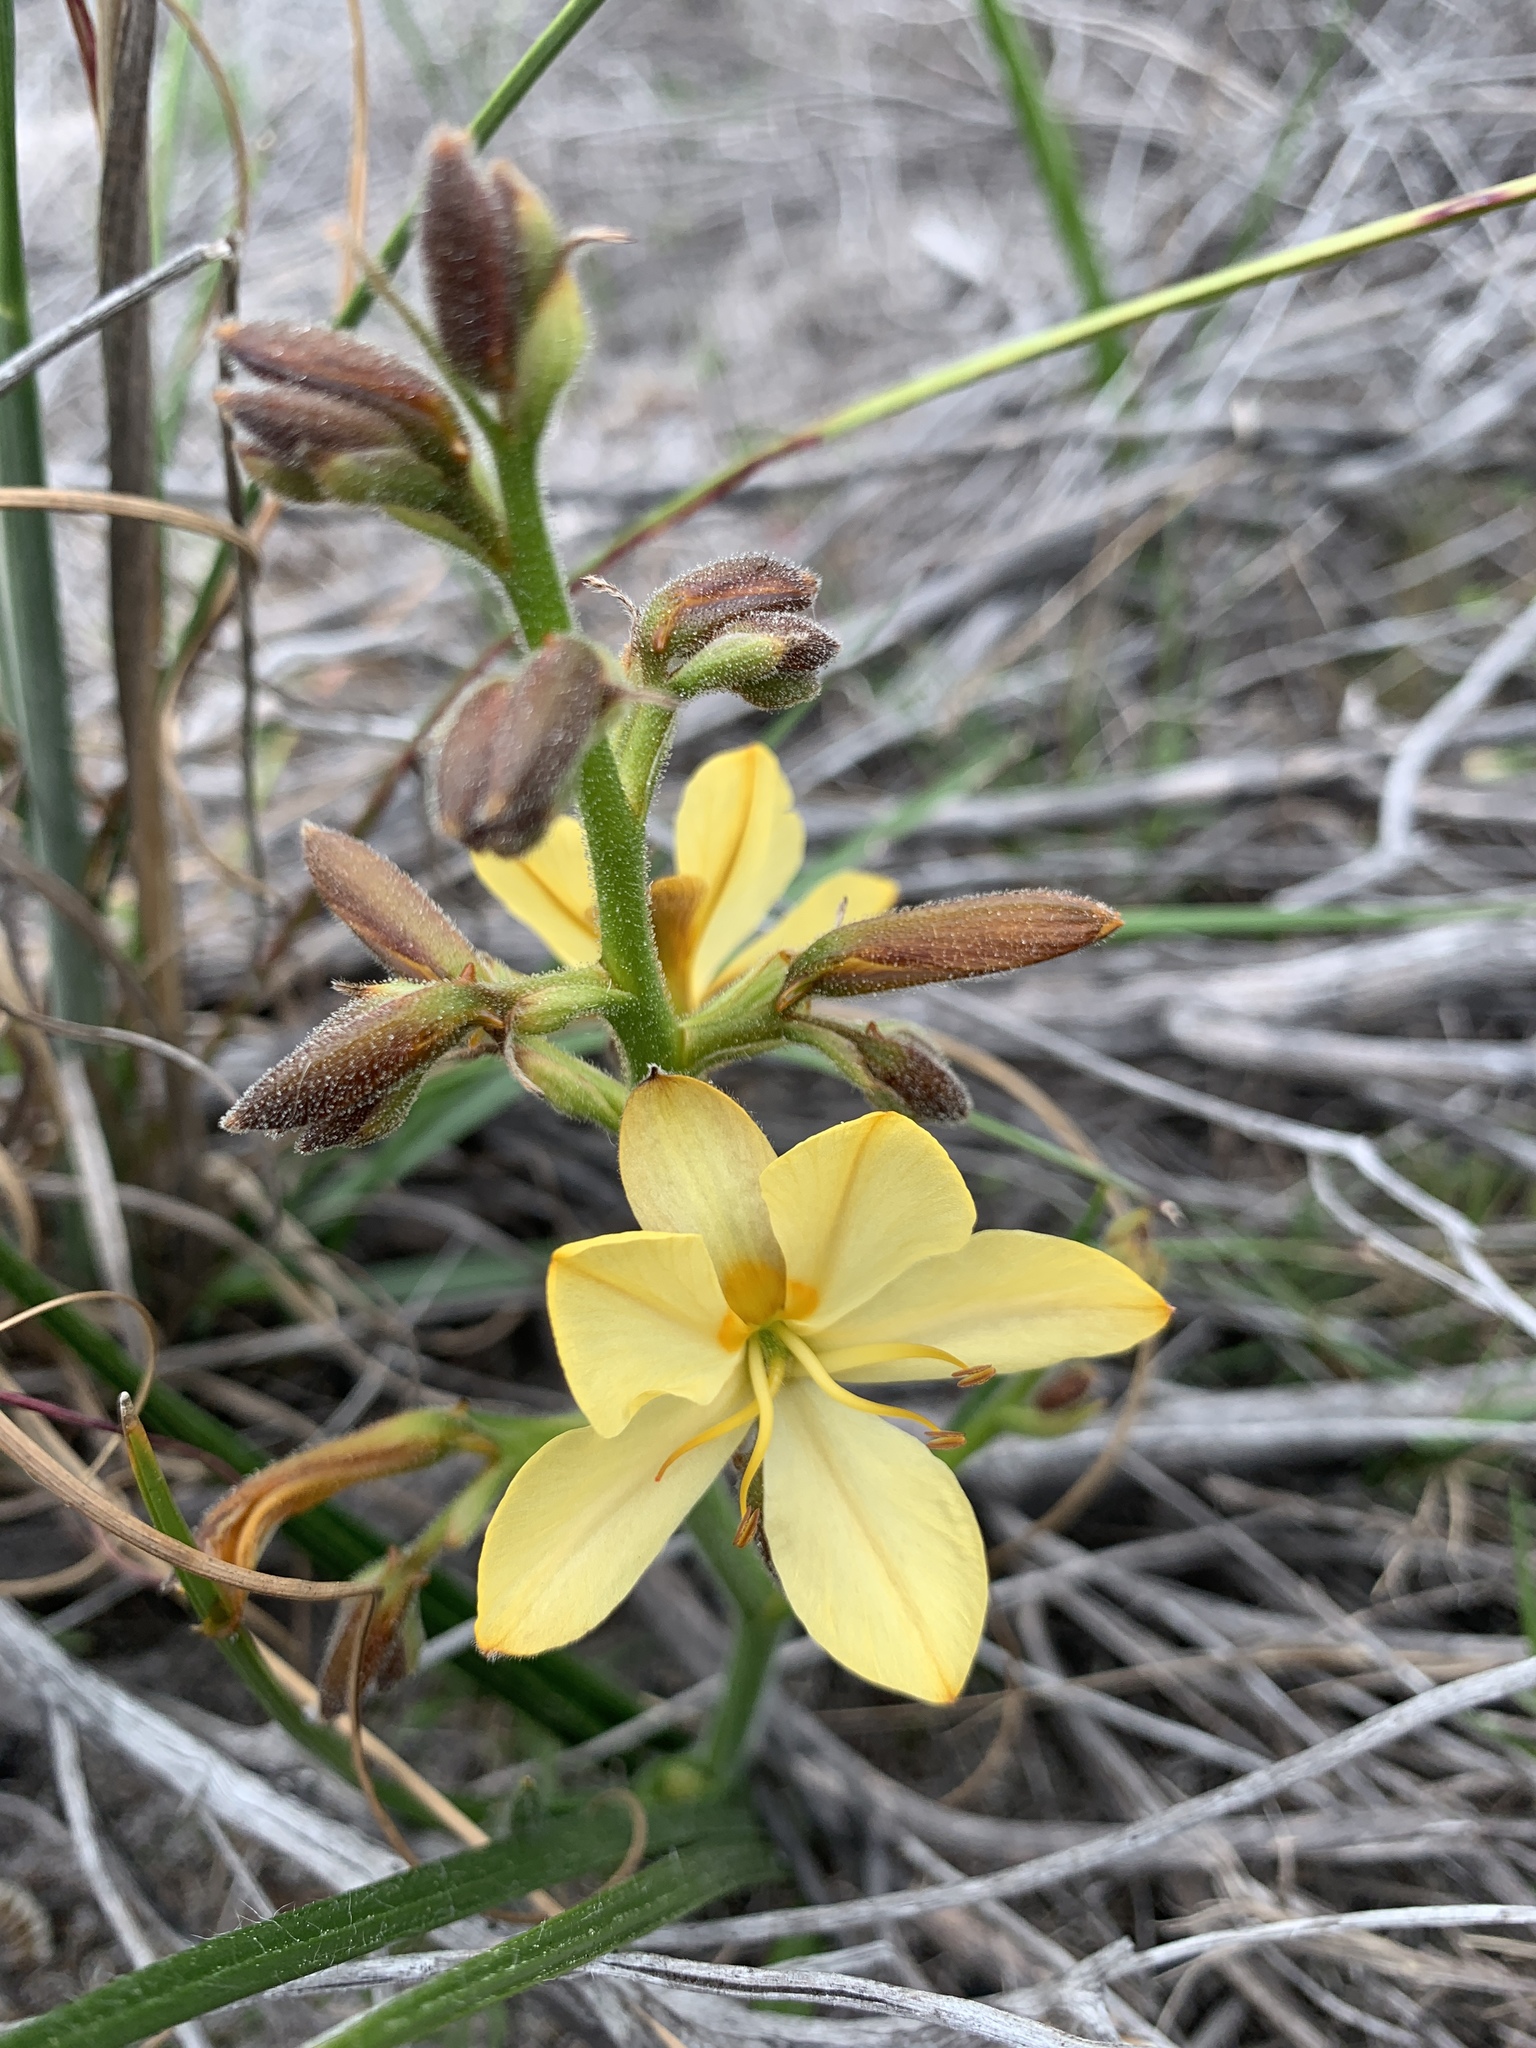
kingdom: Plantae
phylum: Tracheophyta
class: Liliopsida
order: Commelinales
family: Haemodoraceae
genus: Wachendorfia
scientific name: Wachendorfia paniculata
